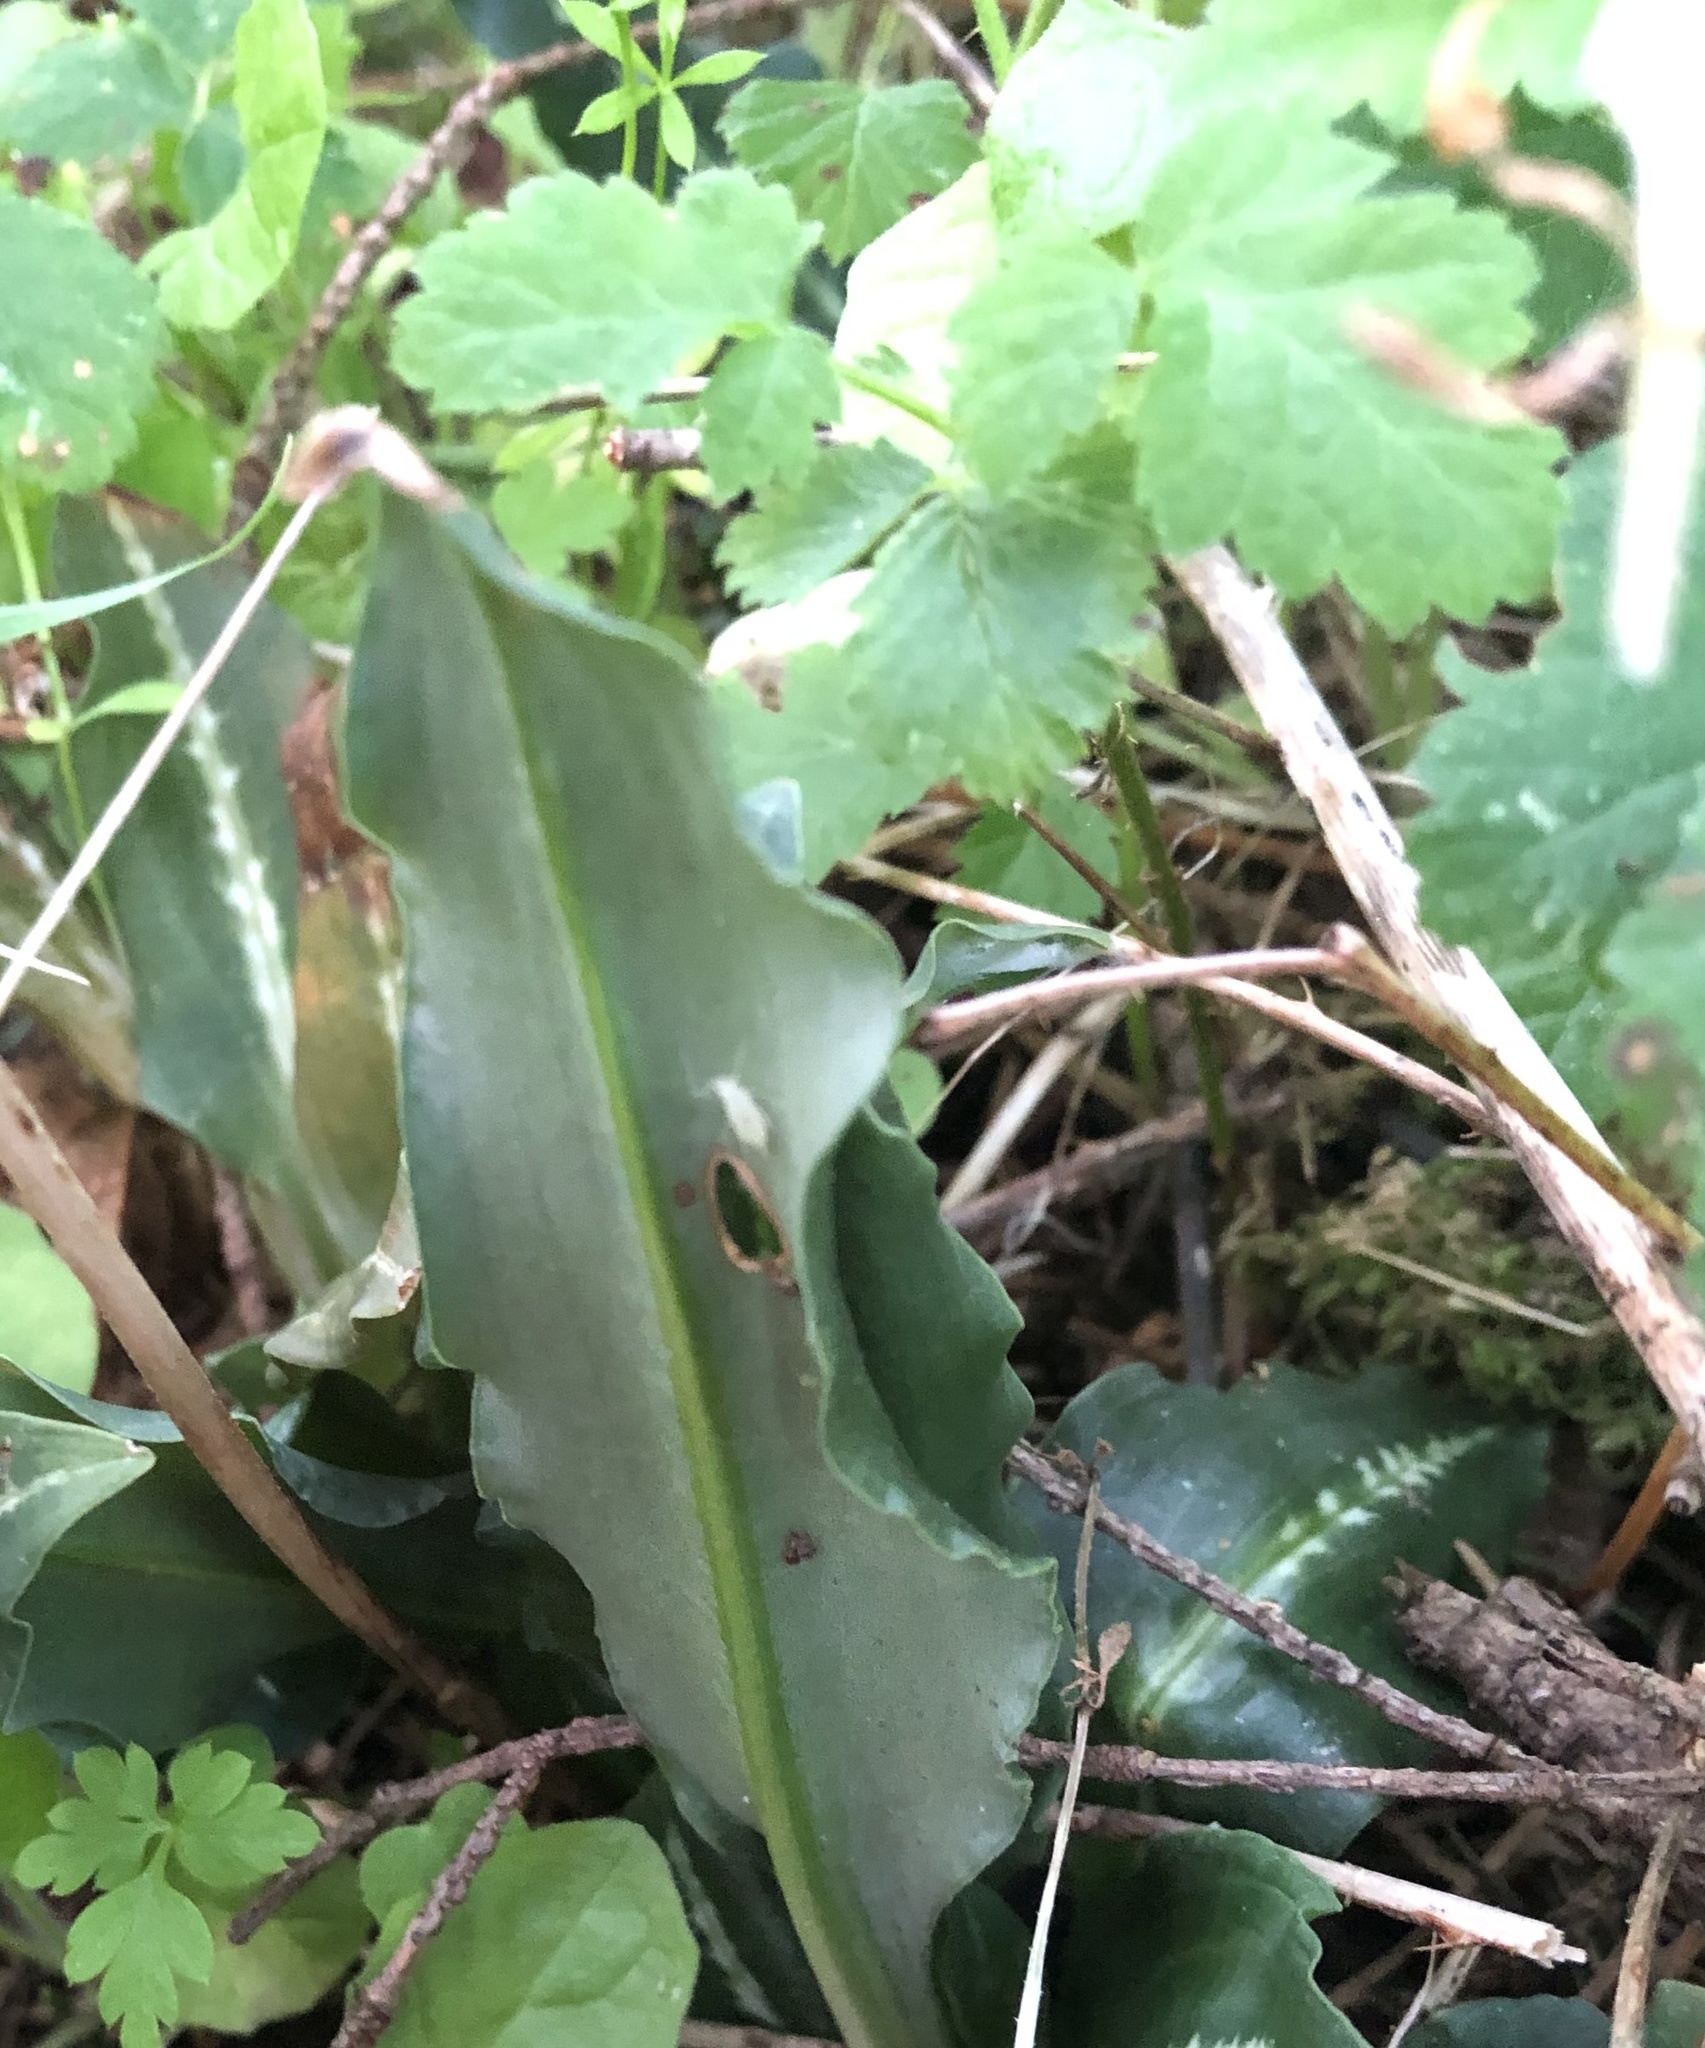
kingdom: Plantae
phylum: Tracheophyta
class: Liliopsida
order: Asparagales
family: Orchidaceae
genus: Goodyera
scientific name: Goodyera oblongifolia
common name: Giant rattlesnake-plantain
